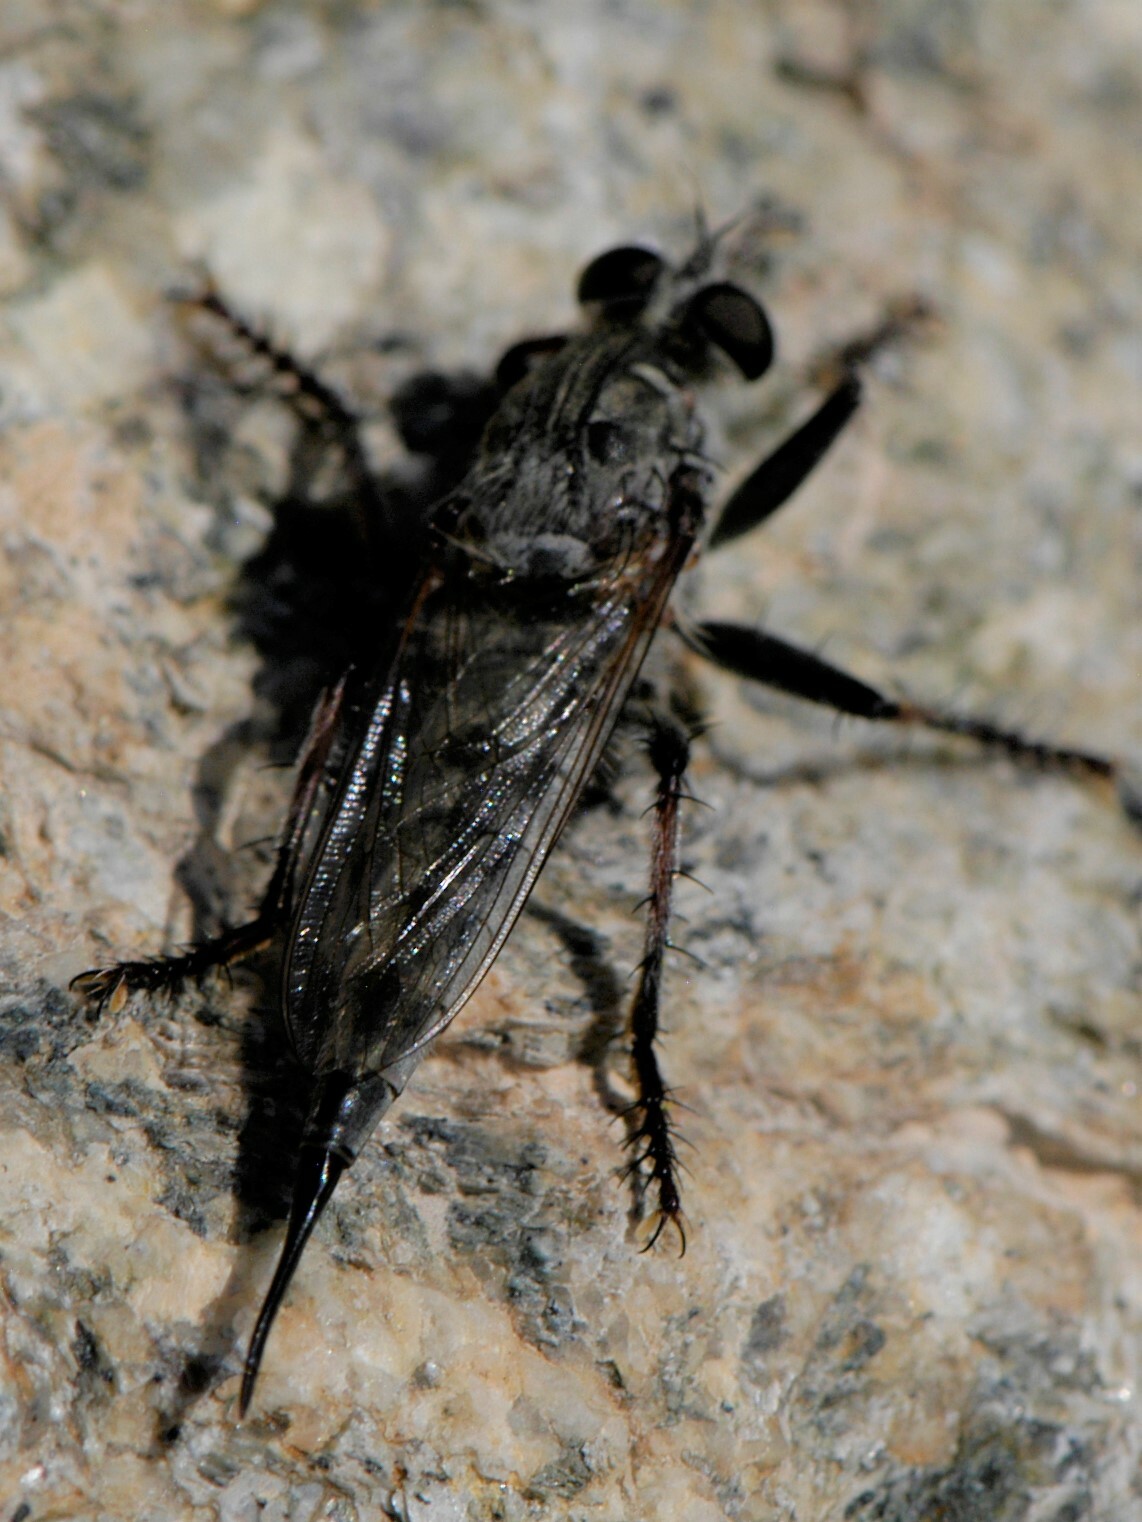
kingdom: Animalia
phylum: Arthropoda
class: Insecta
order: Diptera
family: Asilidae
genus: Efferia
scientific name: Efferia
